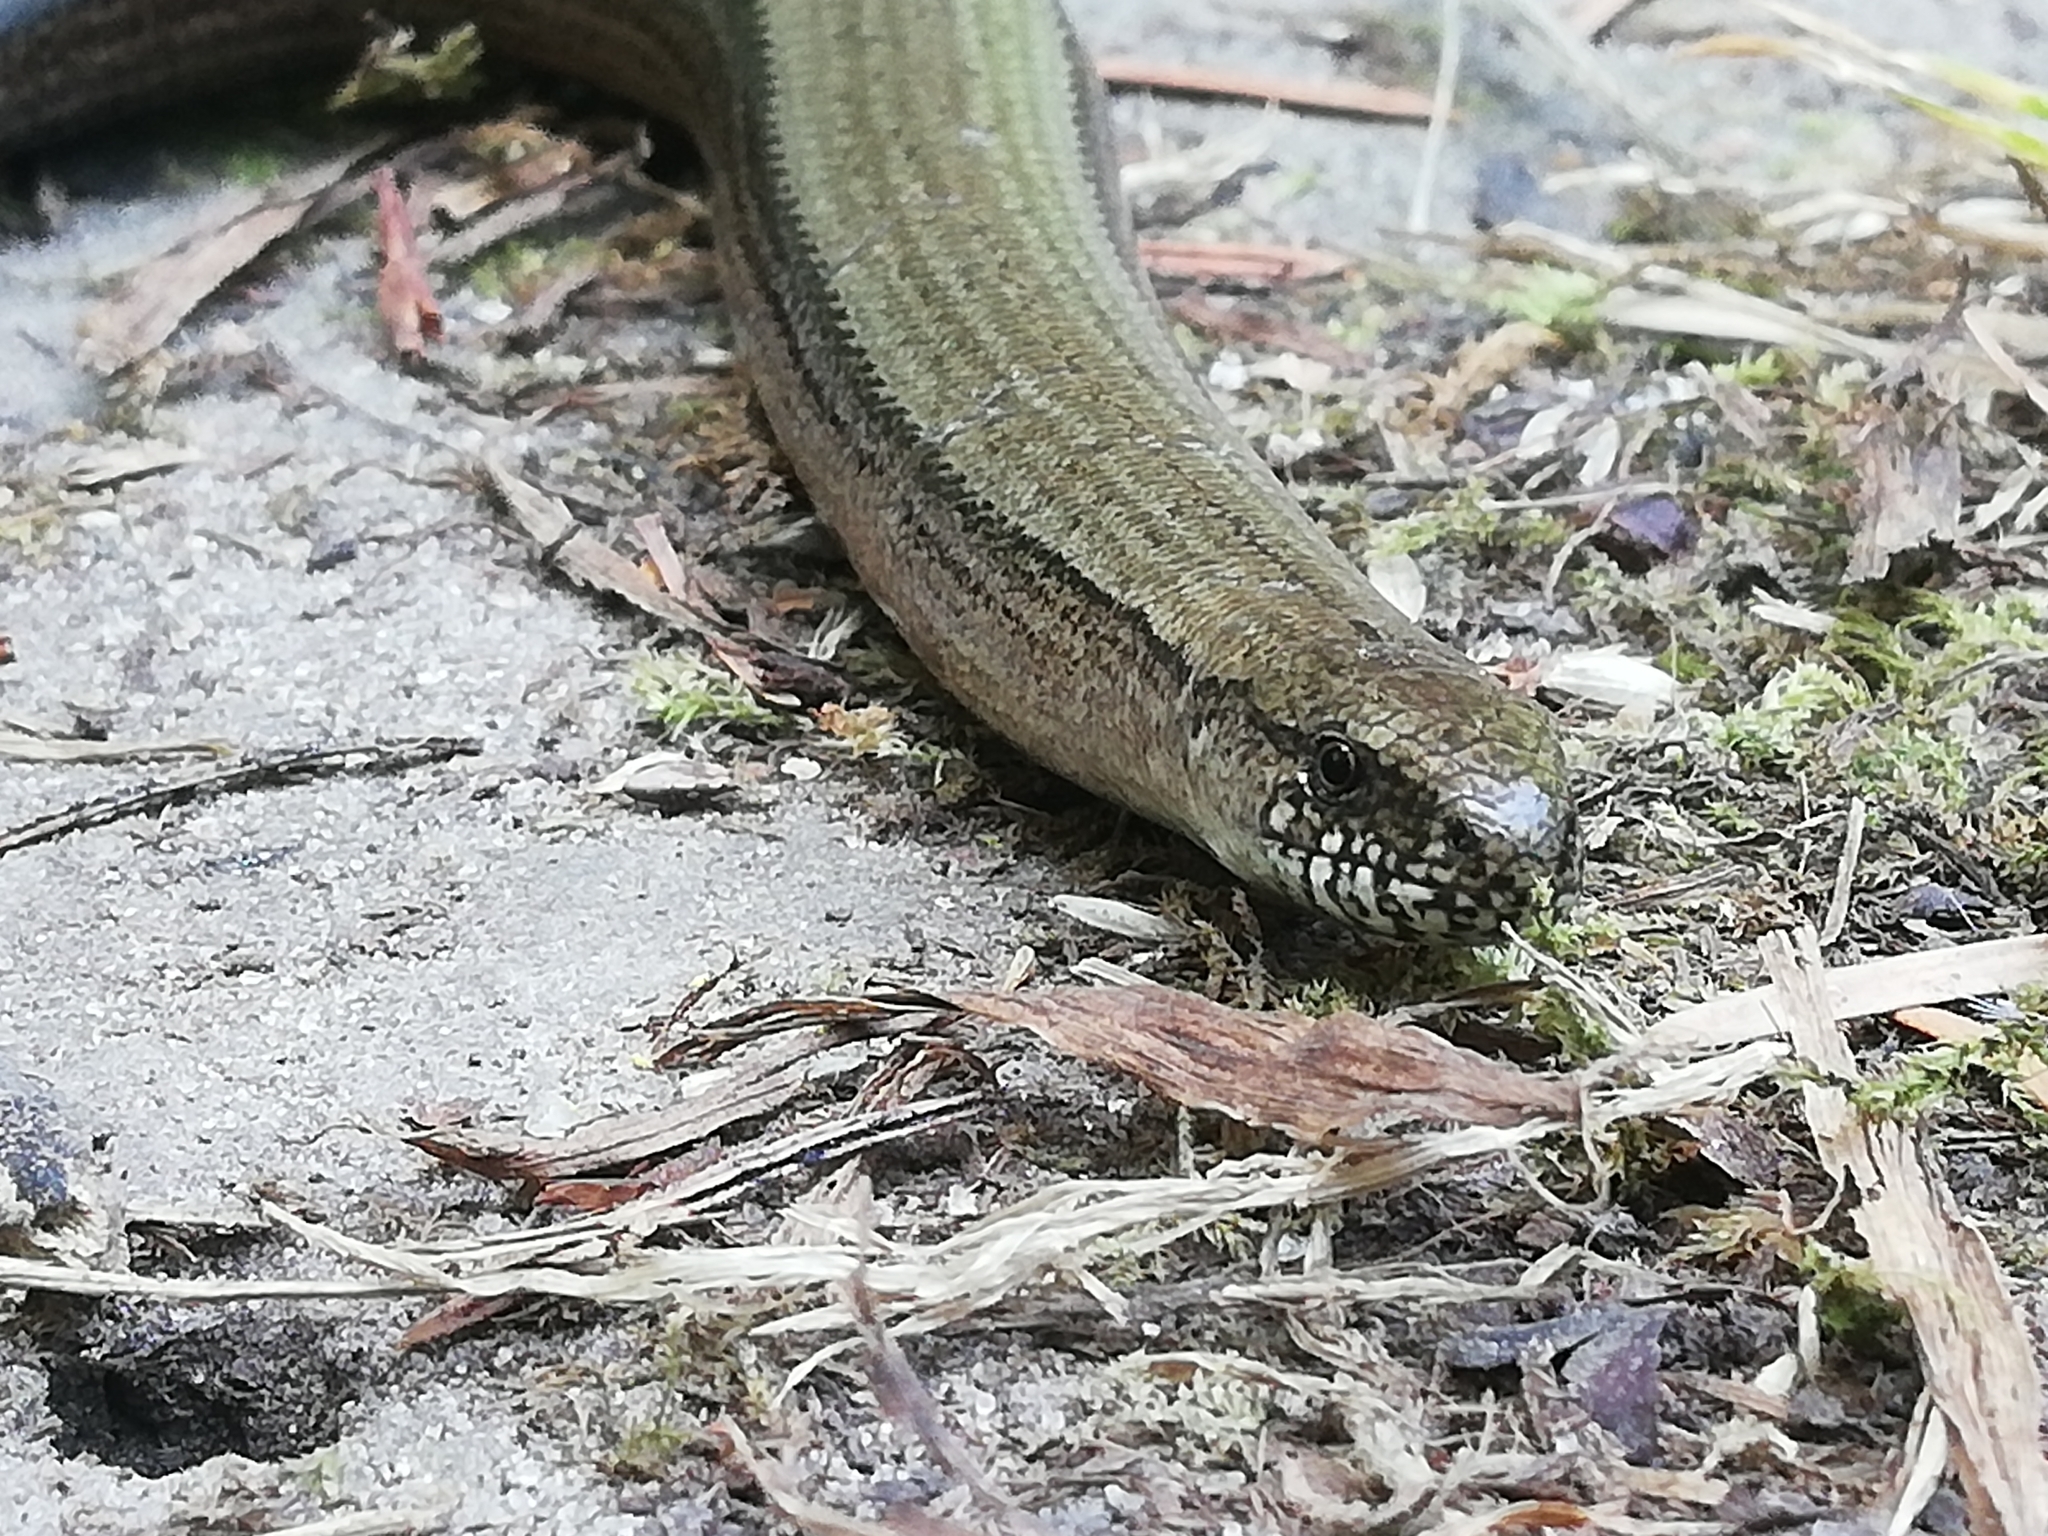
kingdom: Animalia
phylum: Chordata
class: Squamata
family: Anguidae
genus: Anguis
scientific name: Anguis fragilis
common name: Slow worm
